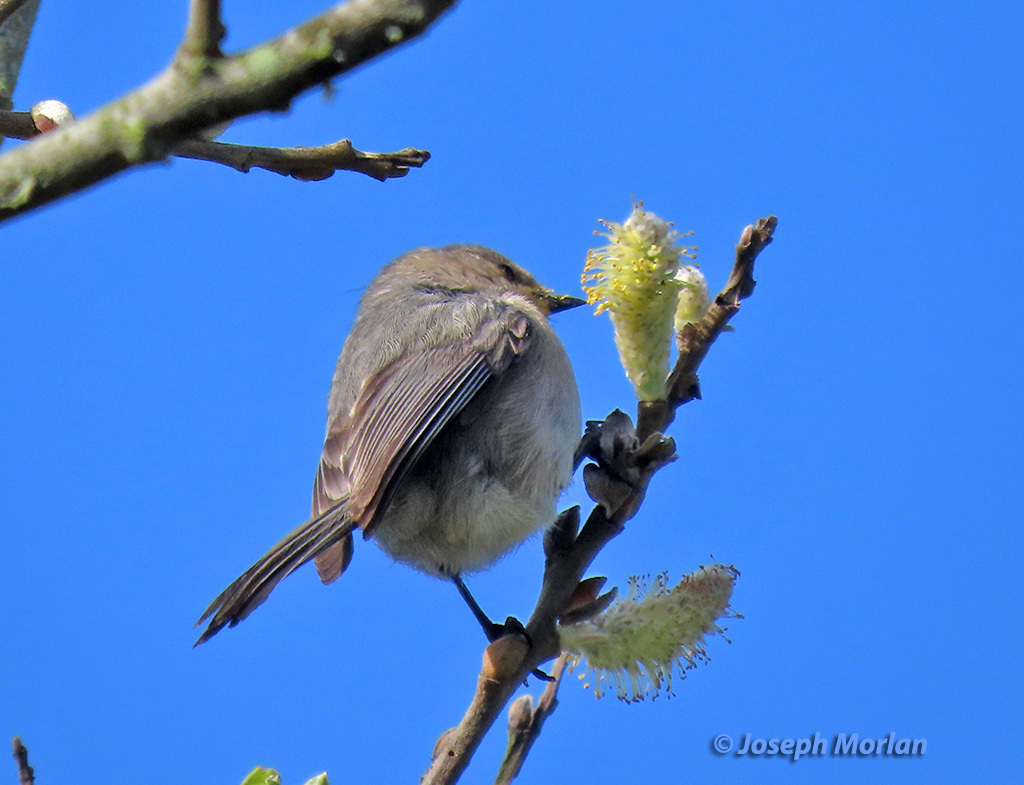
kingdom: Animalia
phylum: Chordata
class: Aves
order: Passeriformes
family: Aegithalidae
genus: Psaltriparus
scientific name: Psaltriparus minimus
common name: American bushtit
